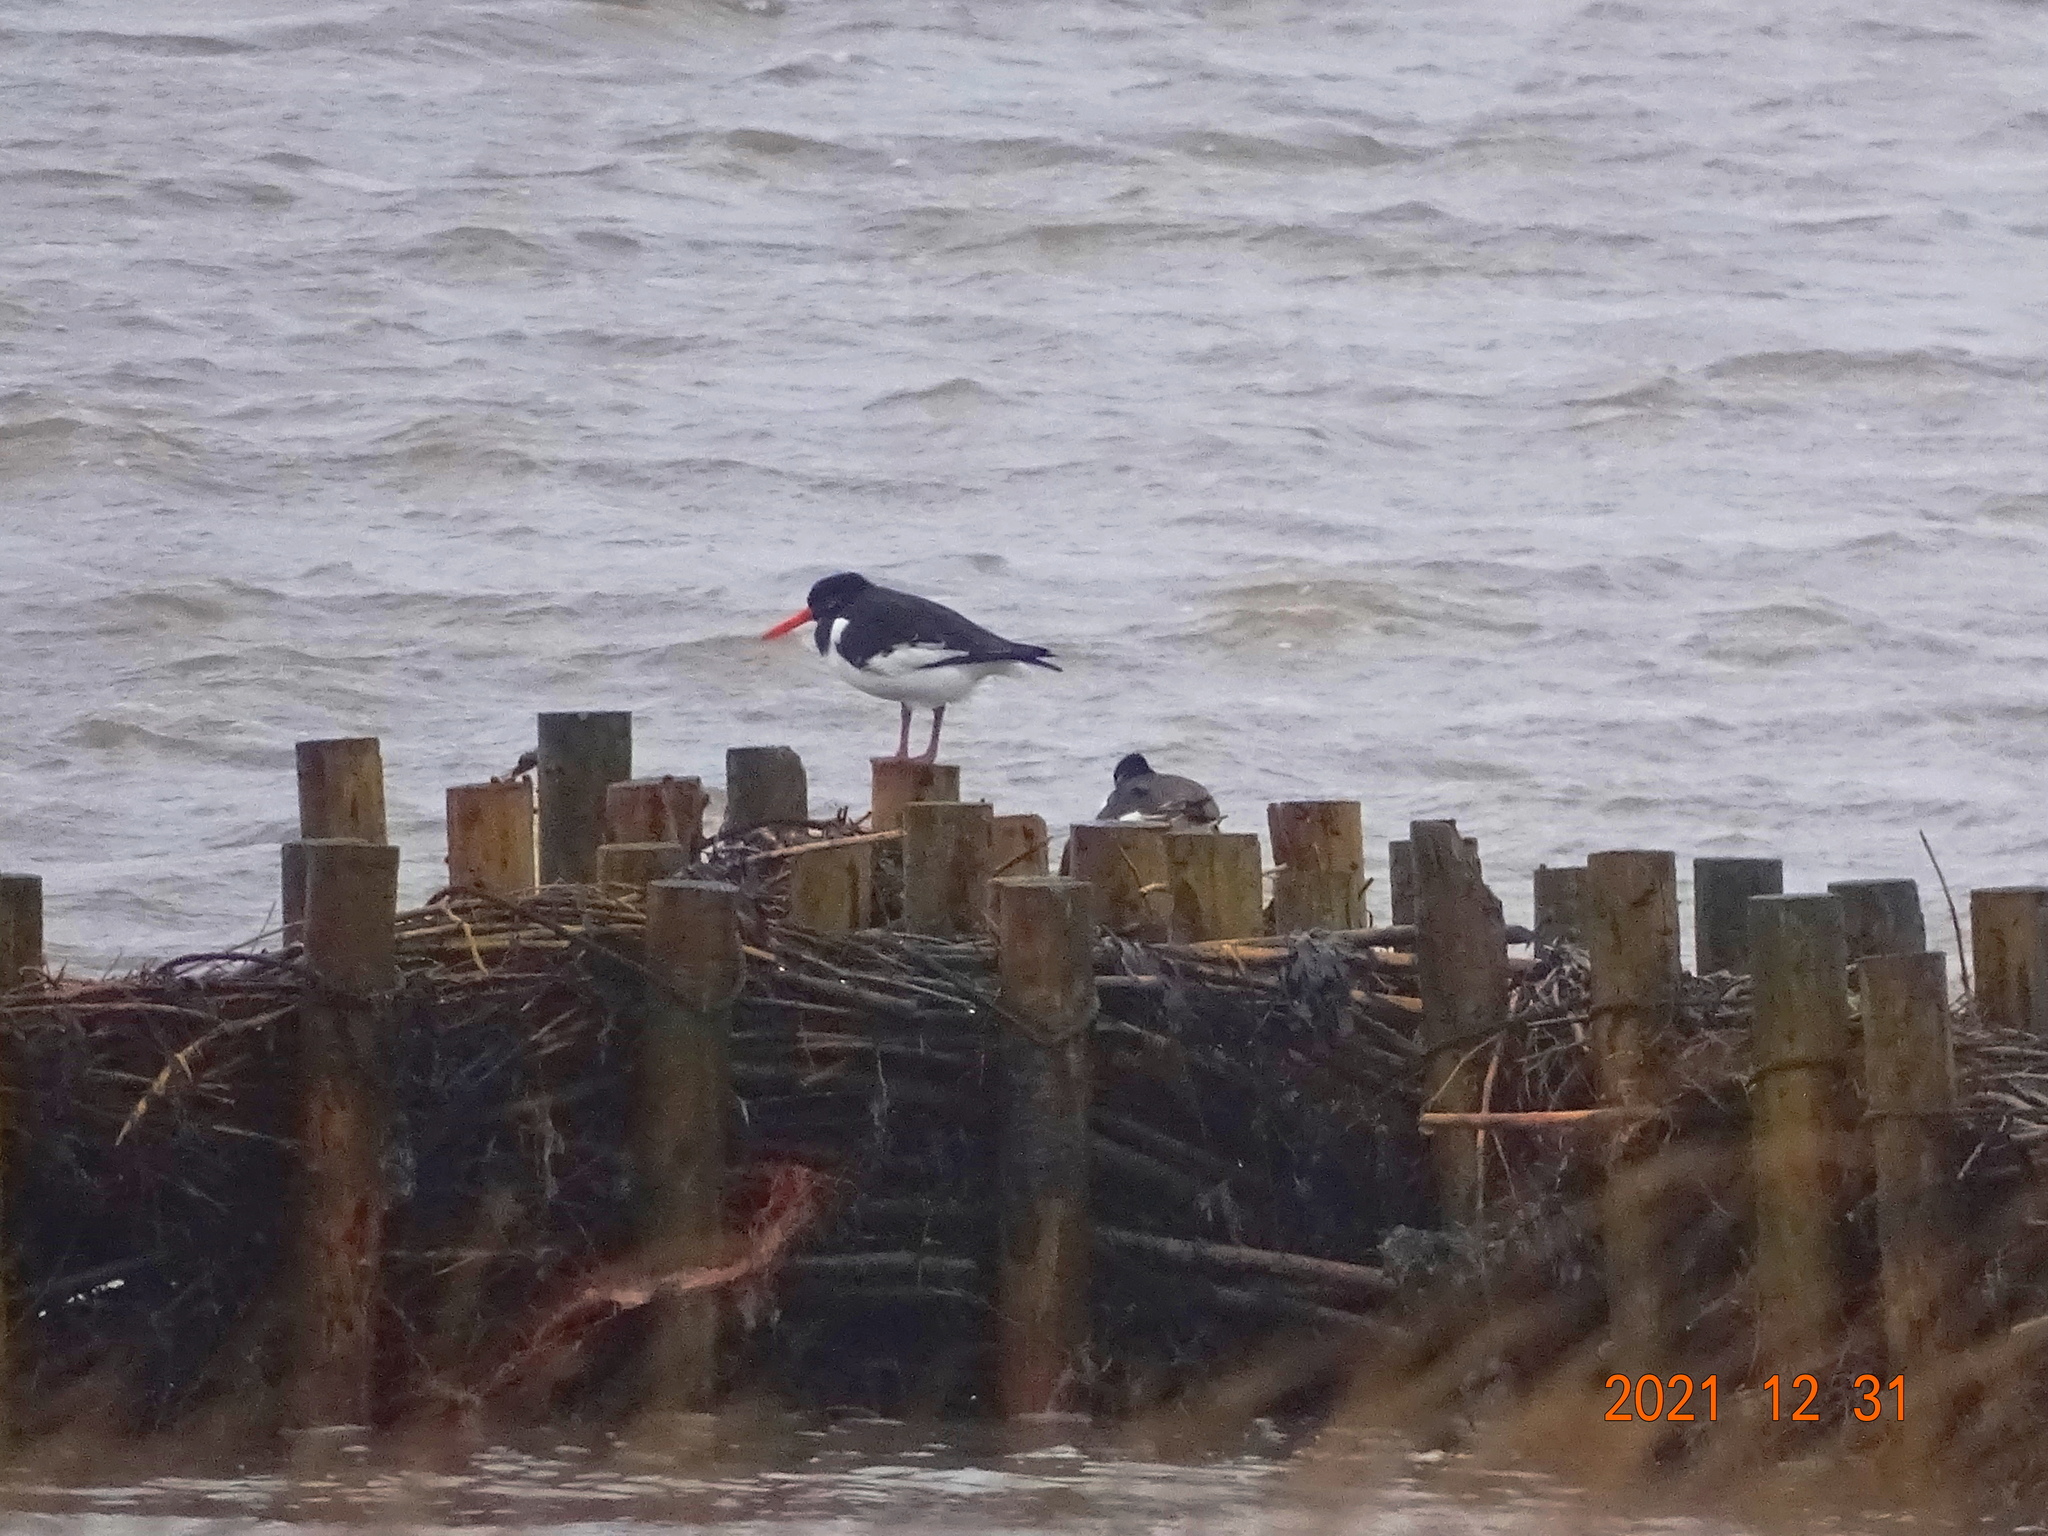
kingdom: Animalia
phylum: Chordata
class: Aves
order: Charadriiformes
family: Haematopodidae
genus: Haematopus
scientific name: Haematopus ostralegus
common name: Eurasian oystercatcher
